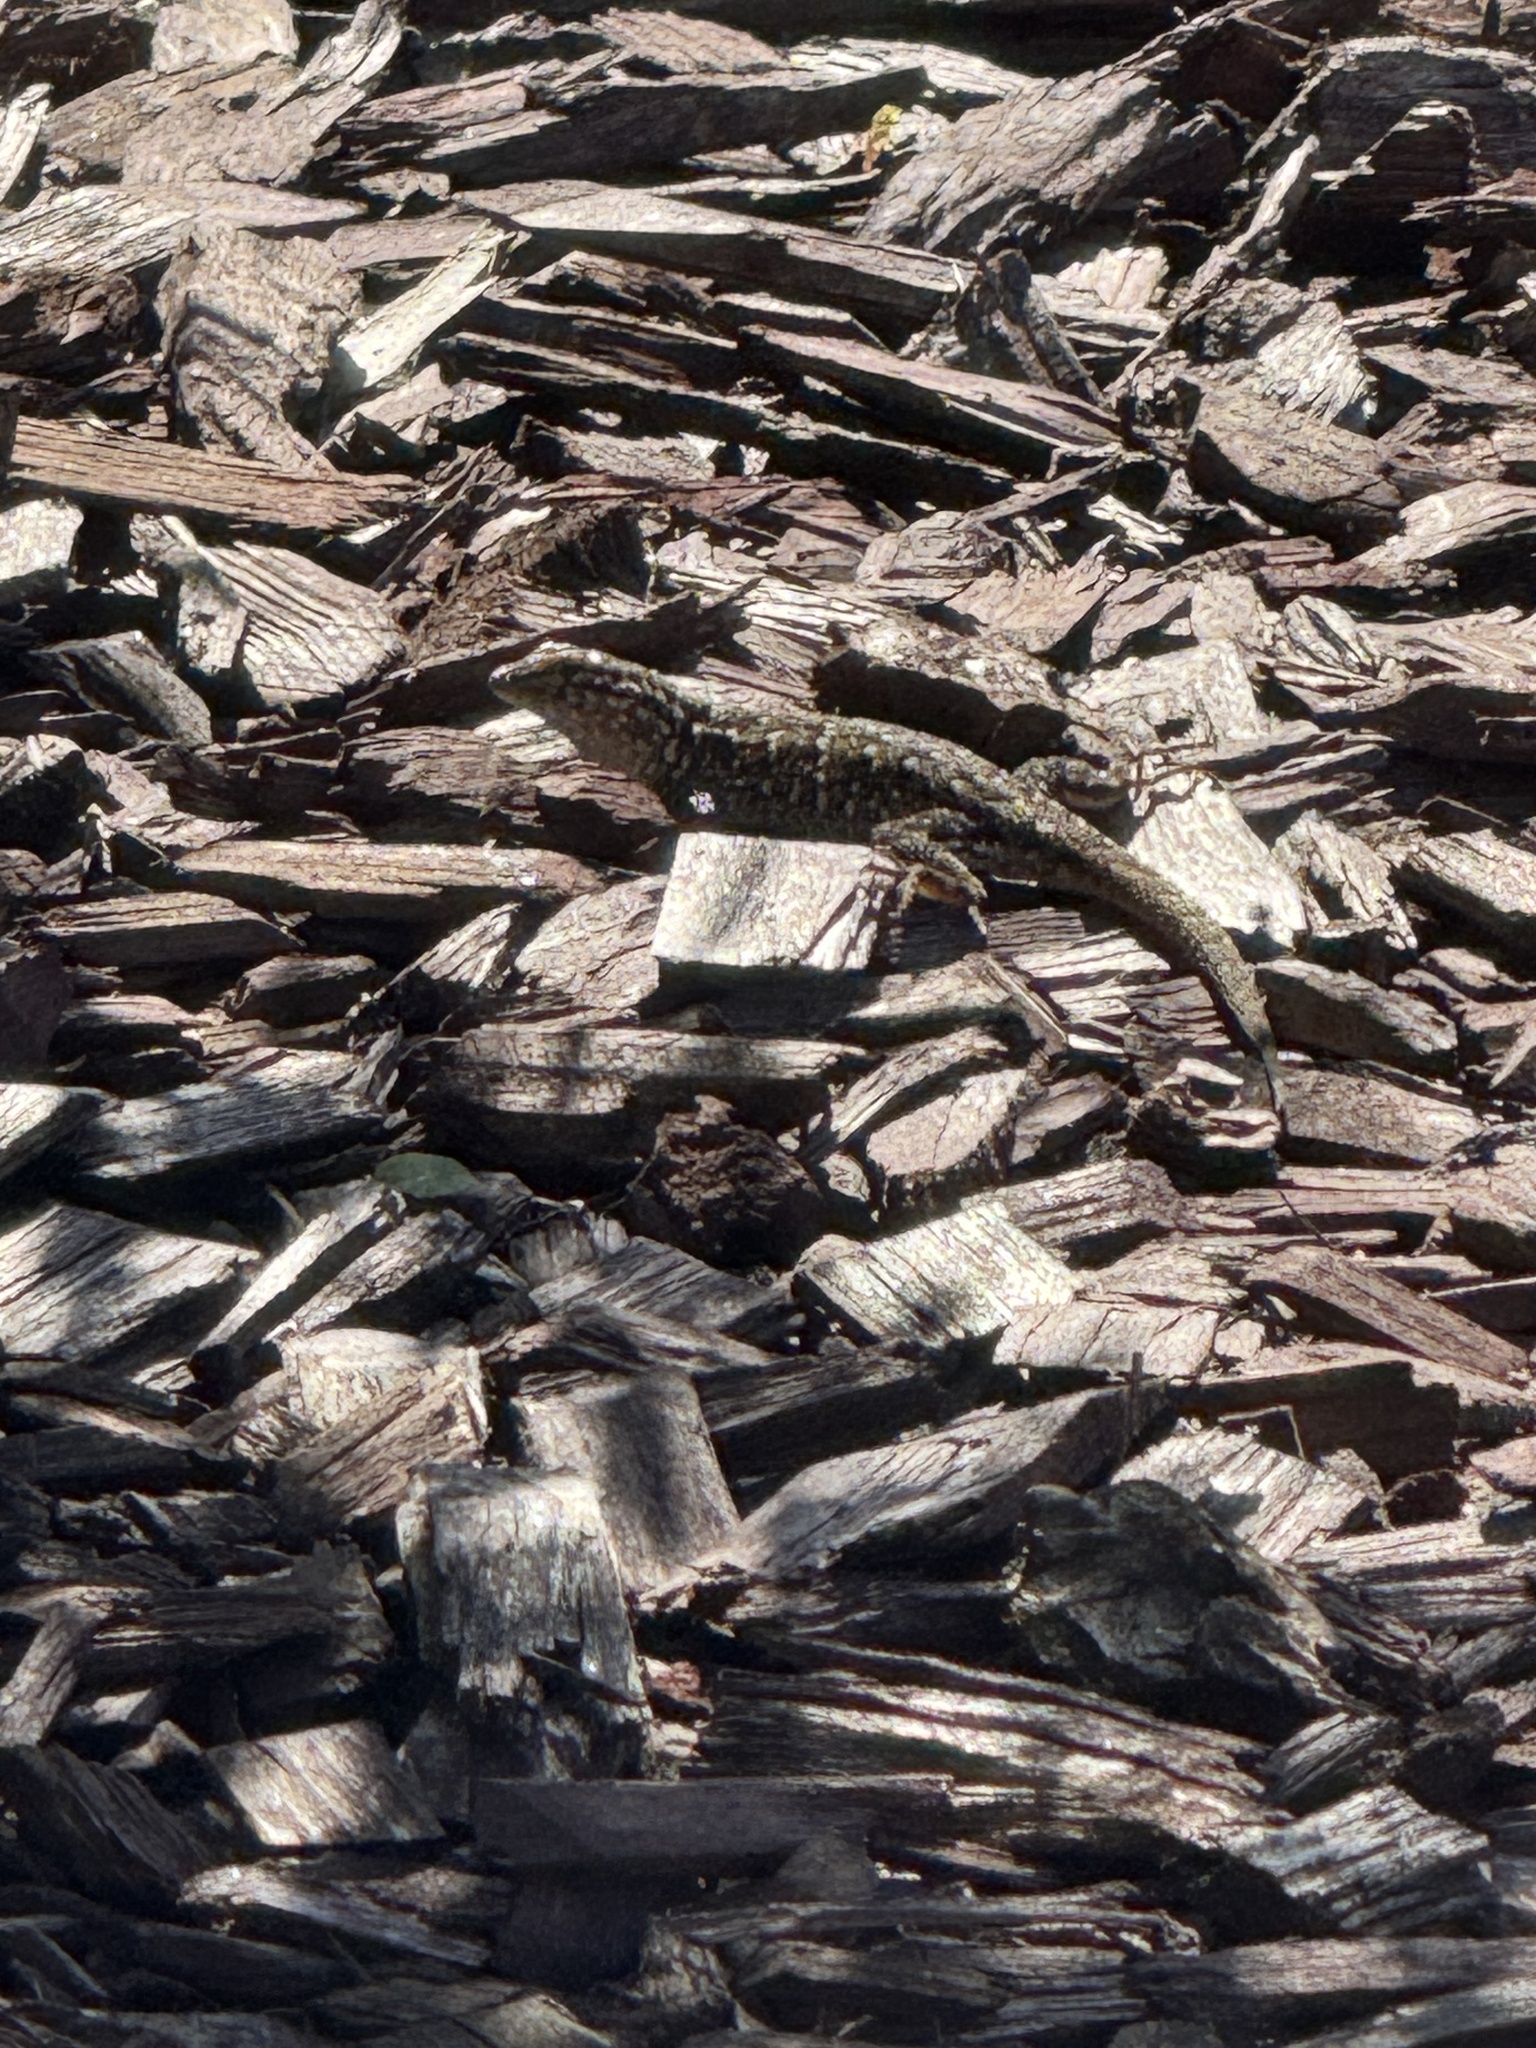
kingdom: Animalia
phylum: Chordata
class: Squamata
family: Phrynosomatidae
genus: Uta
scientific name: Uta stansburiana
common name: Side-blotched lizard
